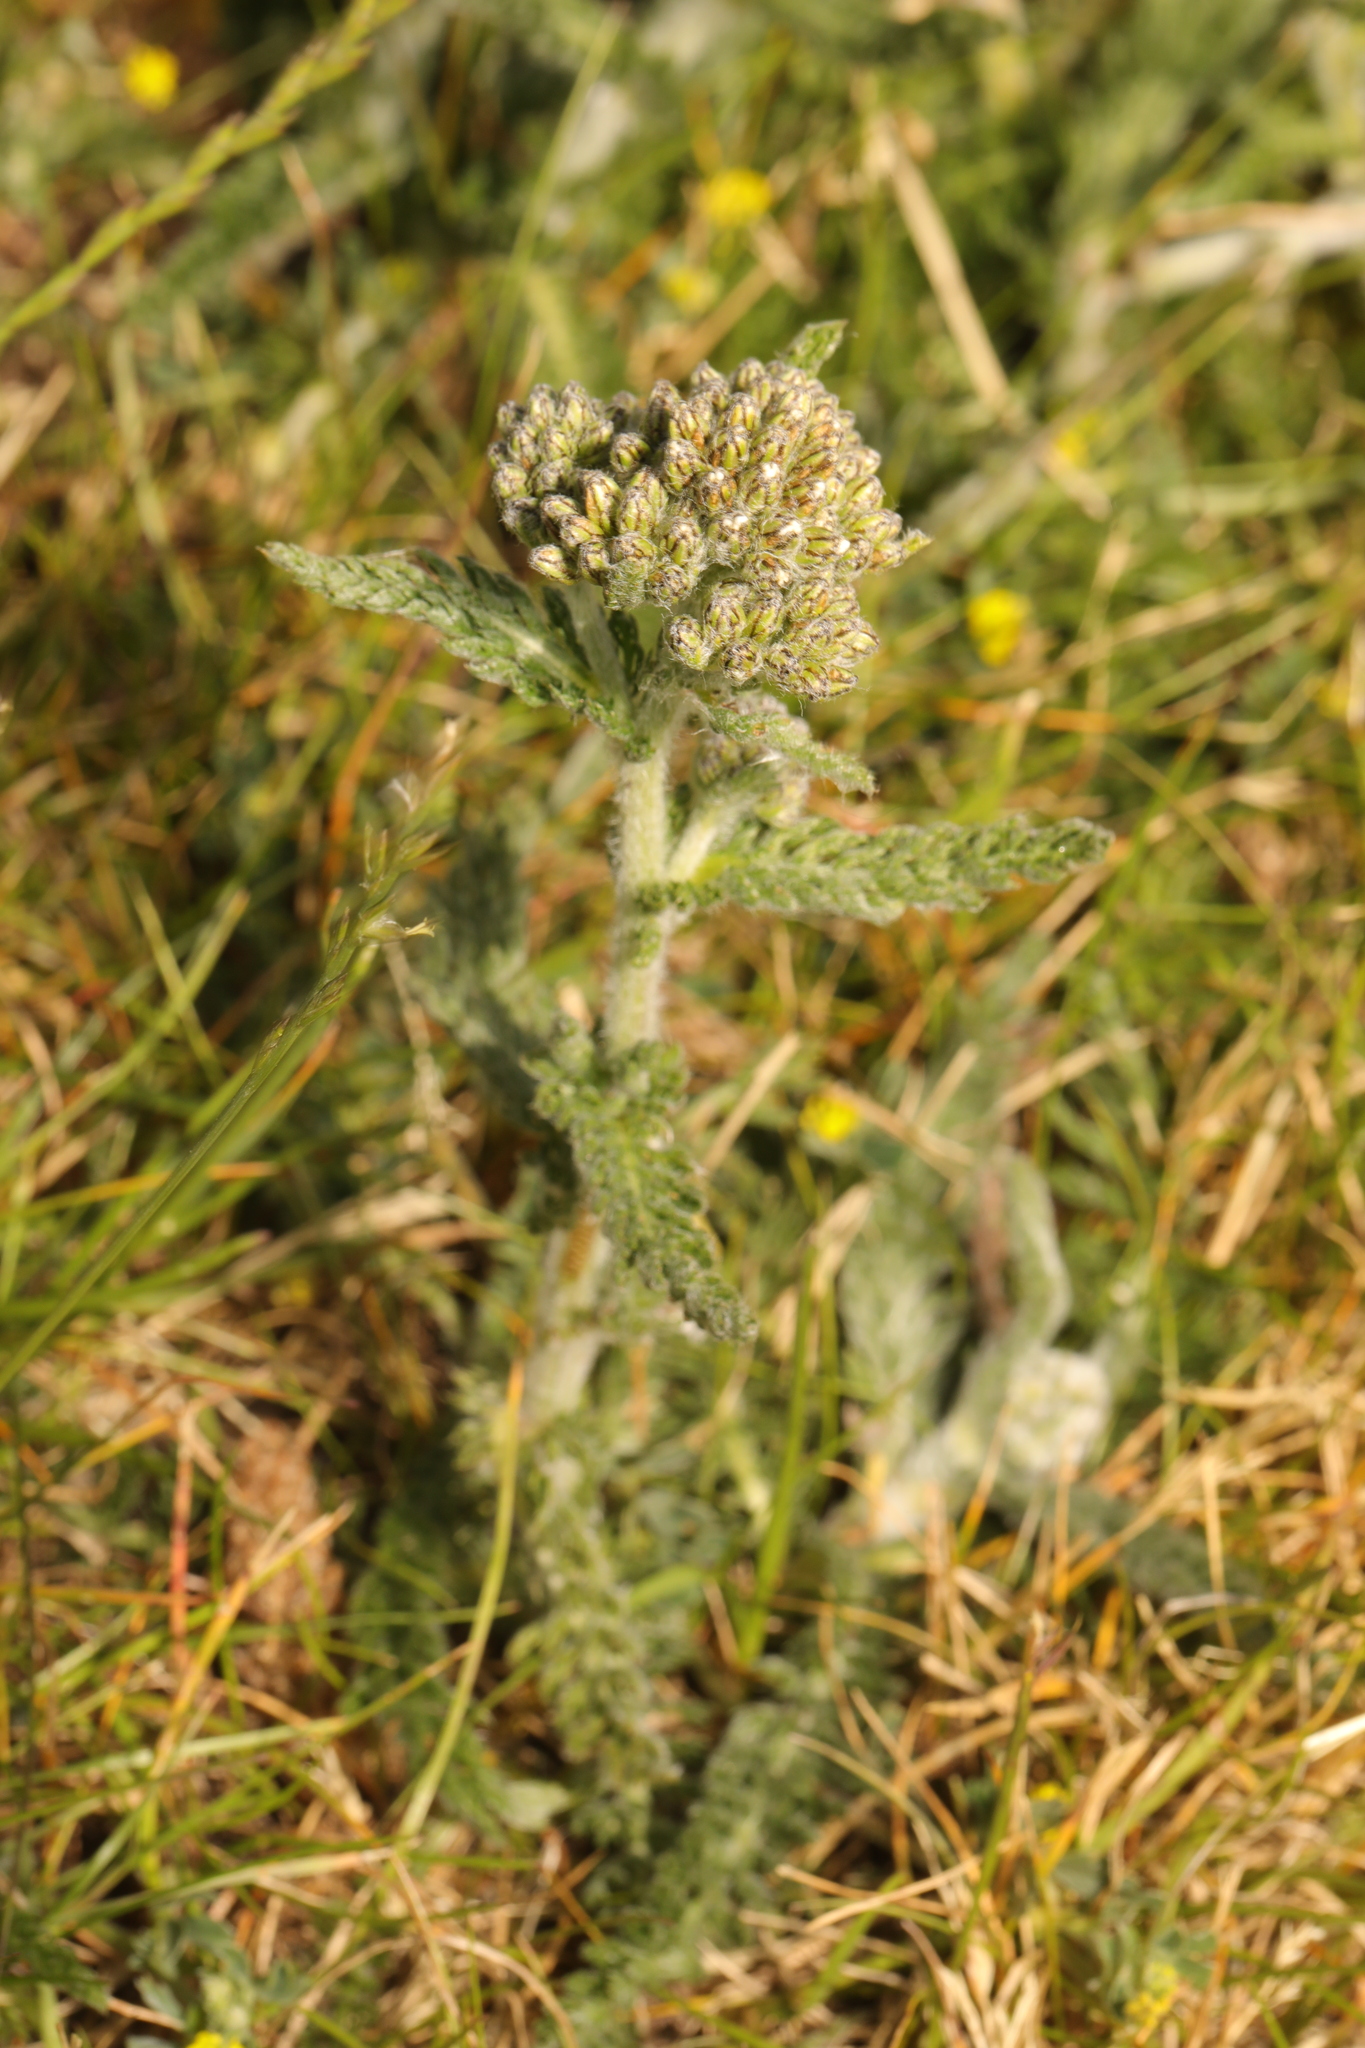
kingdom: Plantae
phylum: Tracheophyta
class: Magnoliopsida
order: Asterales
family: Asteraceae
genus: Achillea
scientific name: Achillea millefolium
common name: Yarrow
